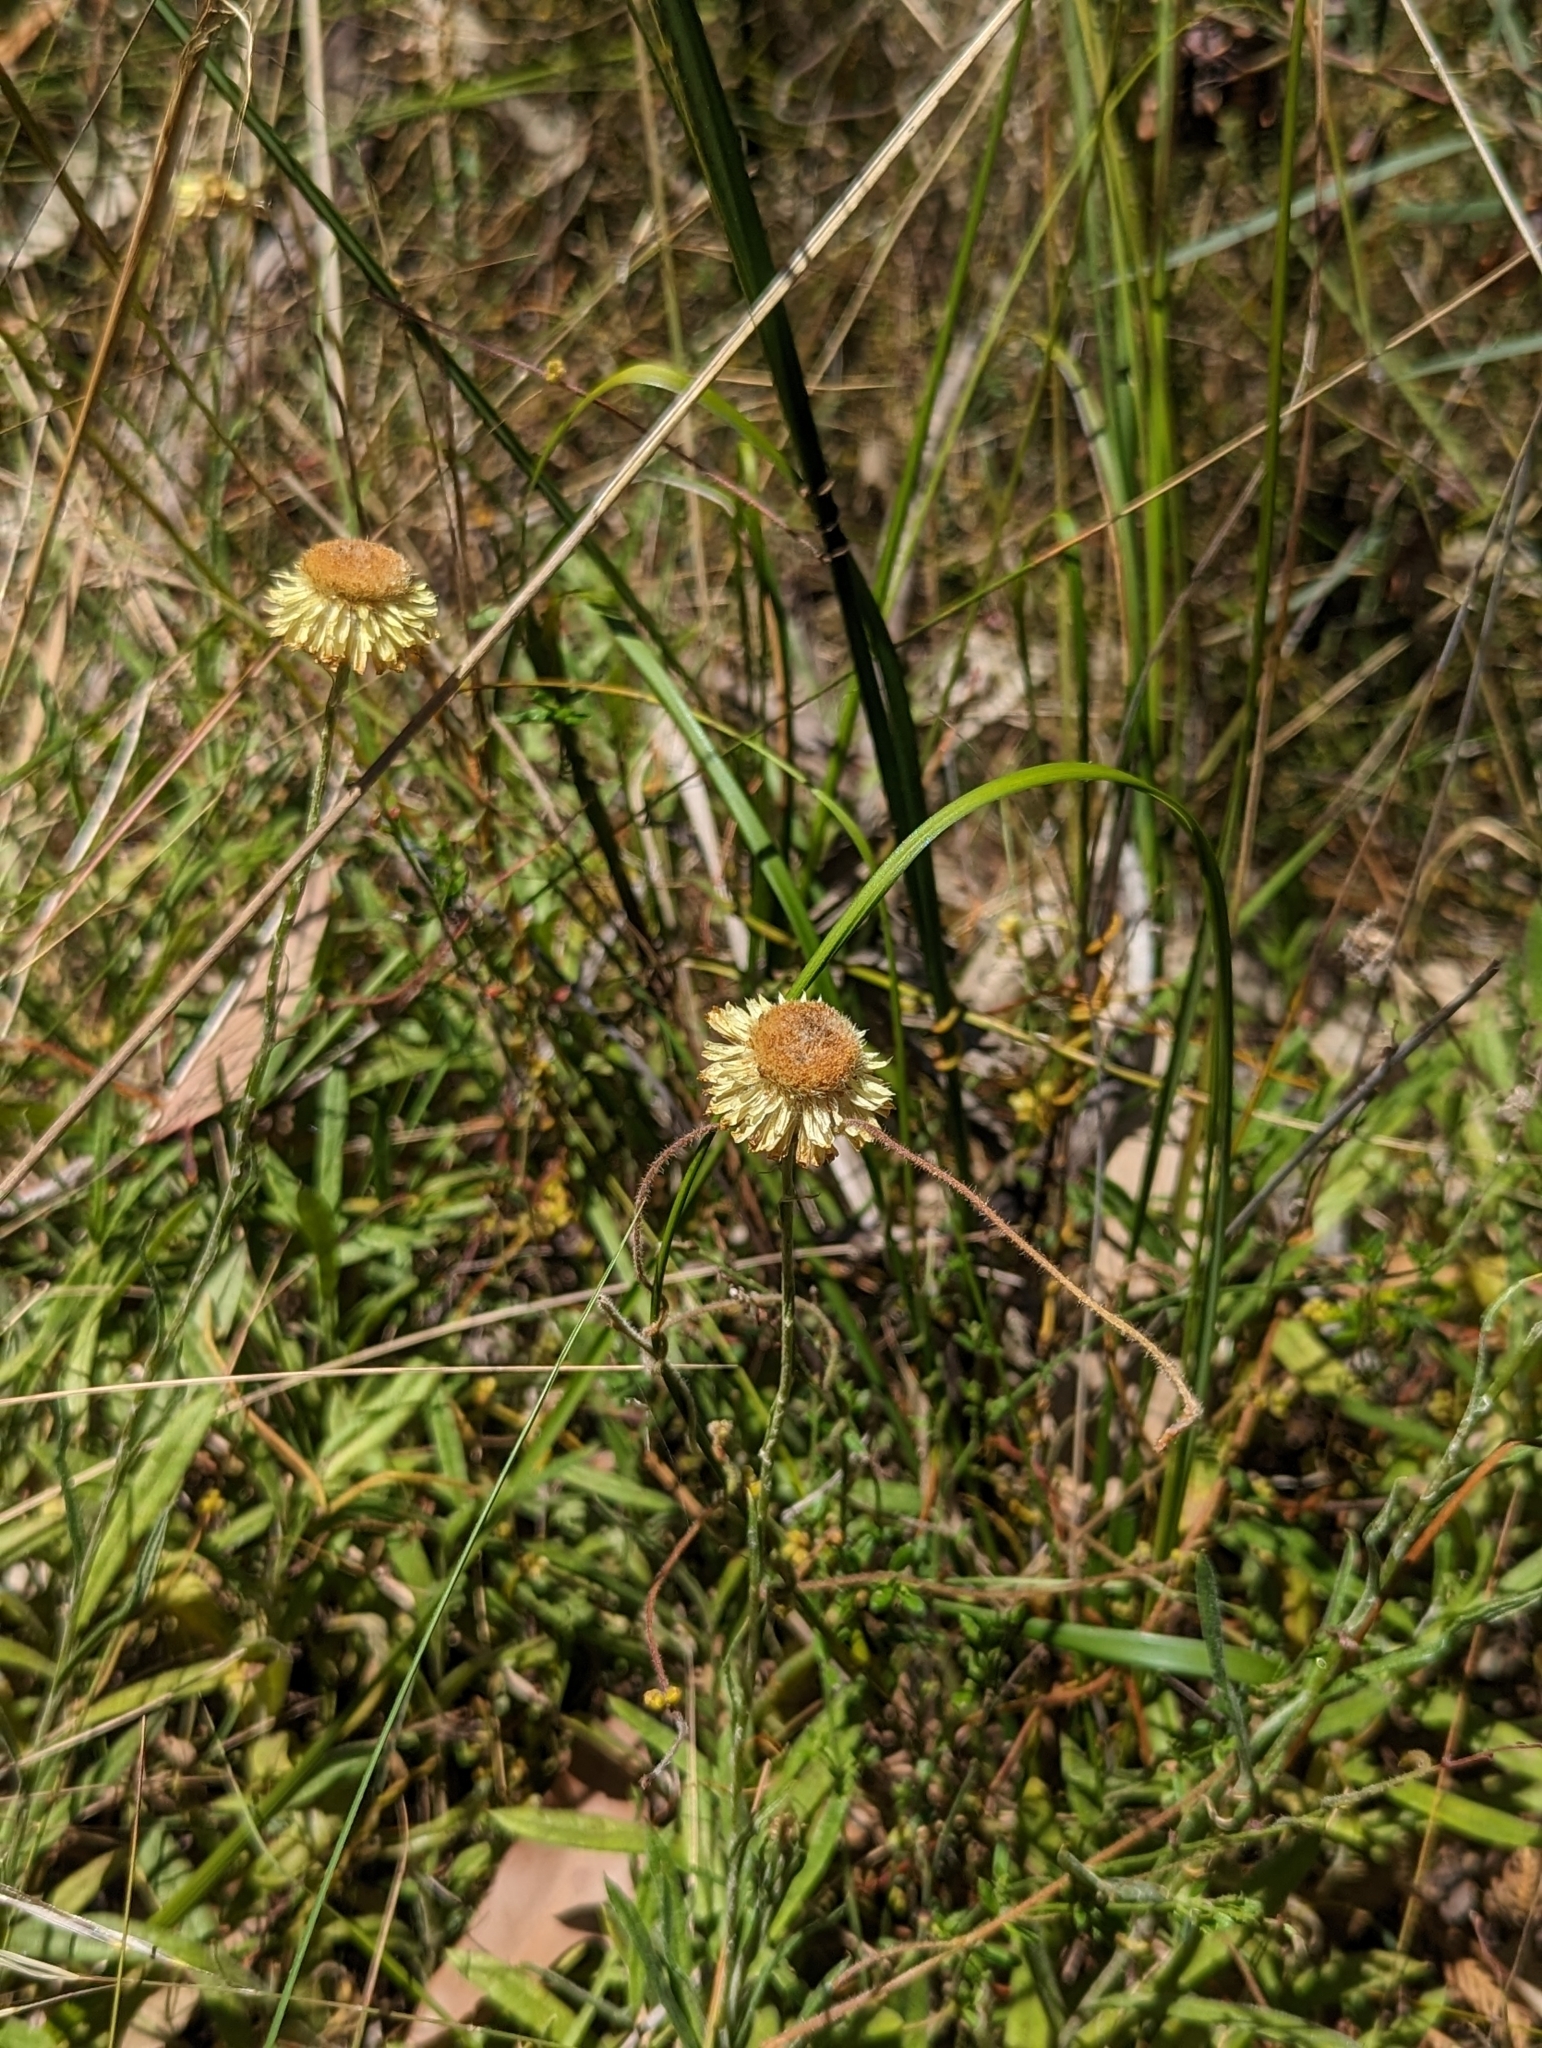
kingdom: Plantae
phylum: Tracheophyta
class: Magnoliopsida
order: Asterales
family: Asteraceae
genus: Coronidium
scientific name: Coronidium scorpioides
